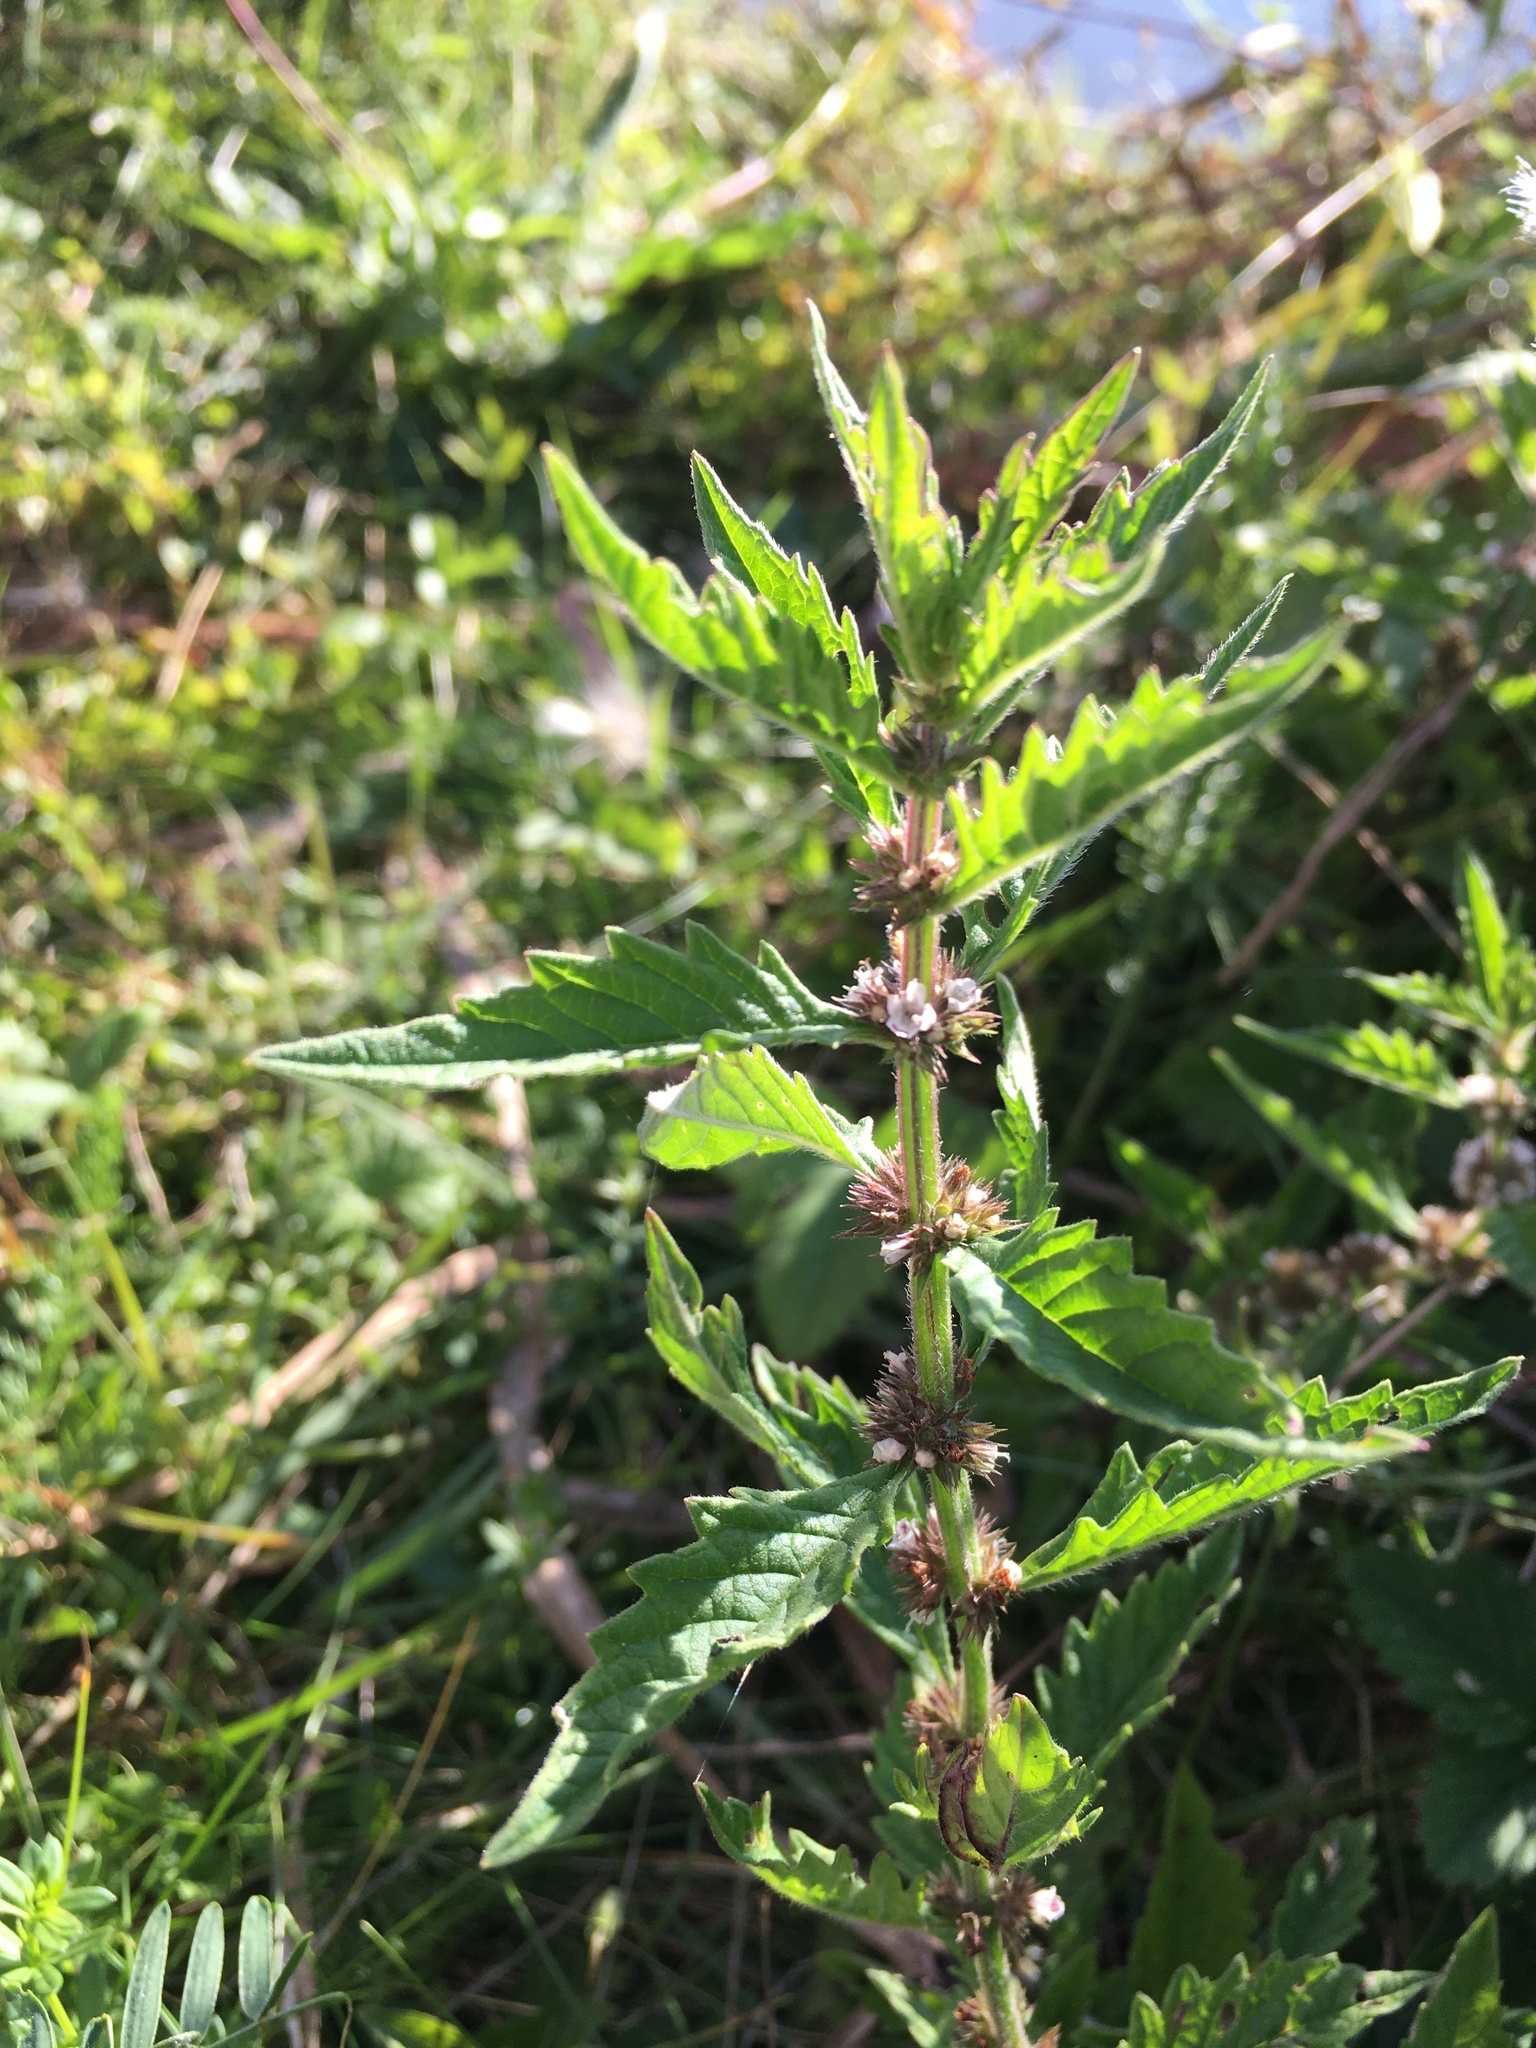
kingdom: Plantae
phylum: Tracheophyta
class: Magnoliopsida
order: Lamiales
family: Lamiaceae
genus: Lycopus
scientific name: Lycopus europaeus
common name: European bugleweed
